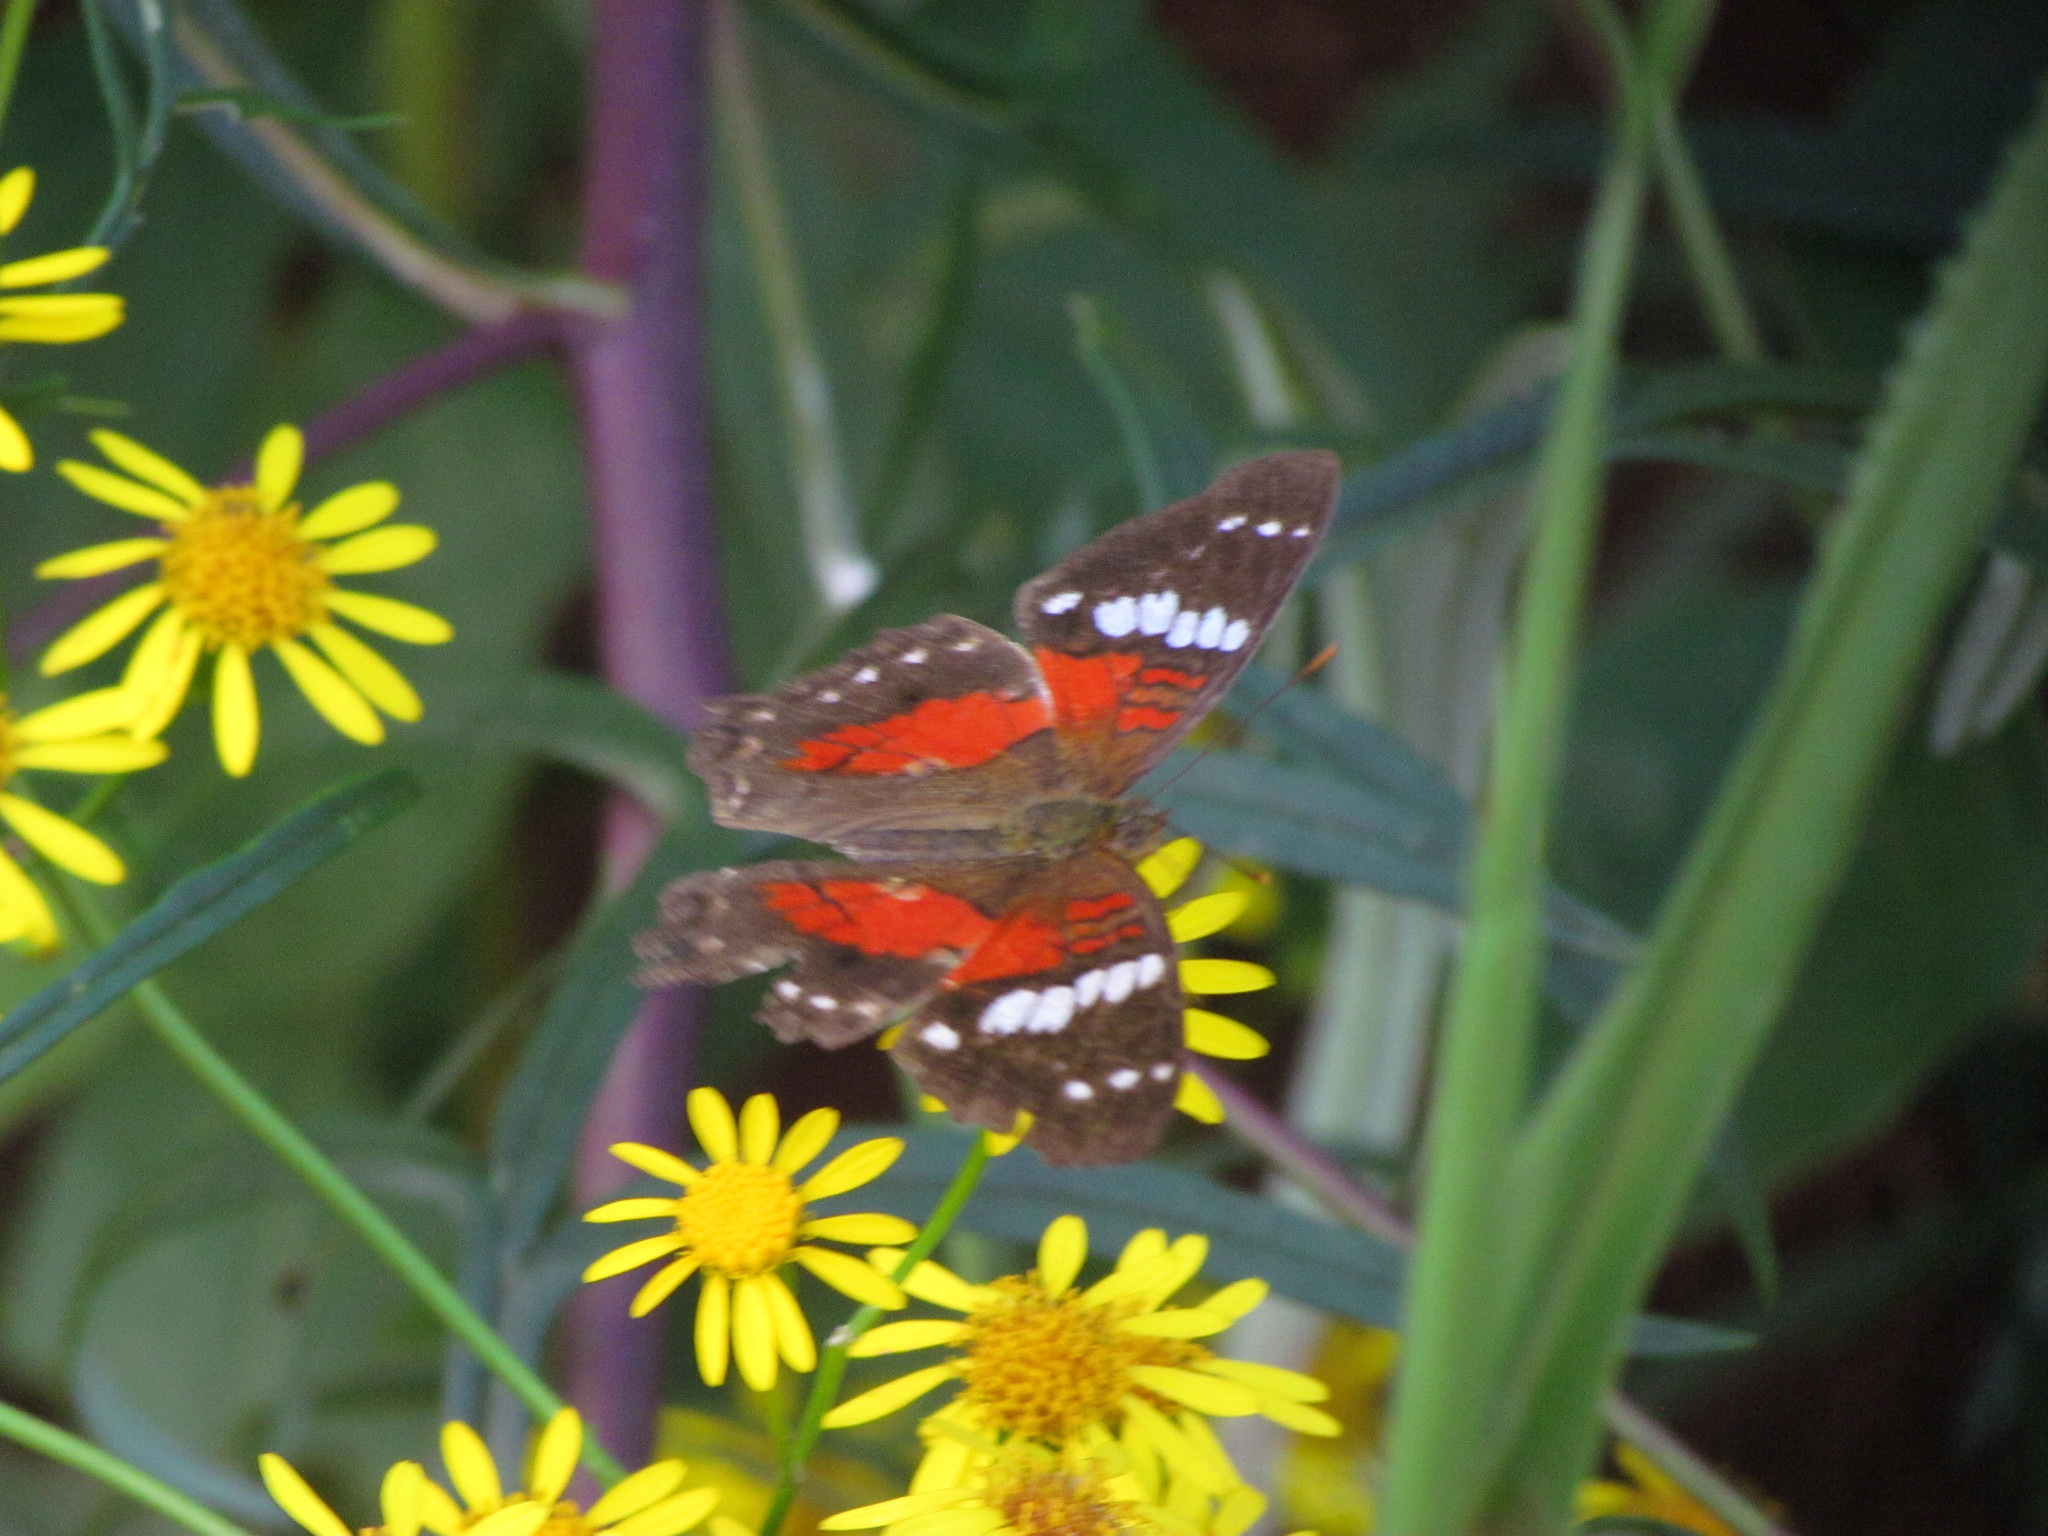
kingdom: Animalia
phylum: Arthropoda
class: Insecta
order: Lepidoptera
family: Nymphalidae
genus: Anartia
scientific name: Anartia amathea
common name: Red peacock
